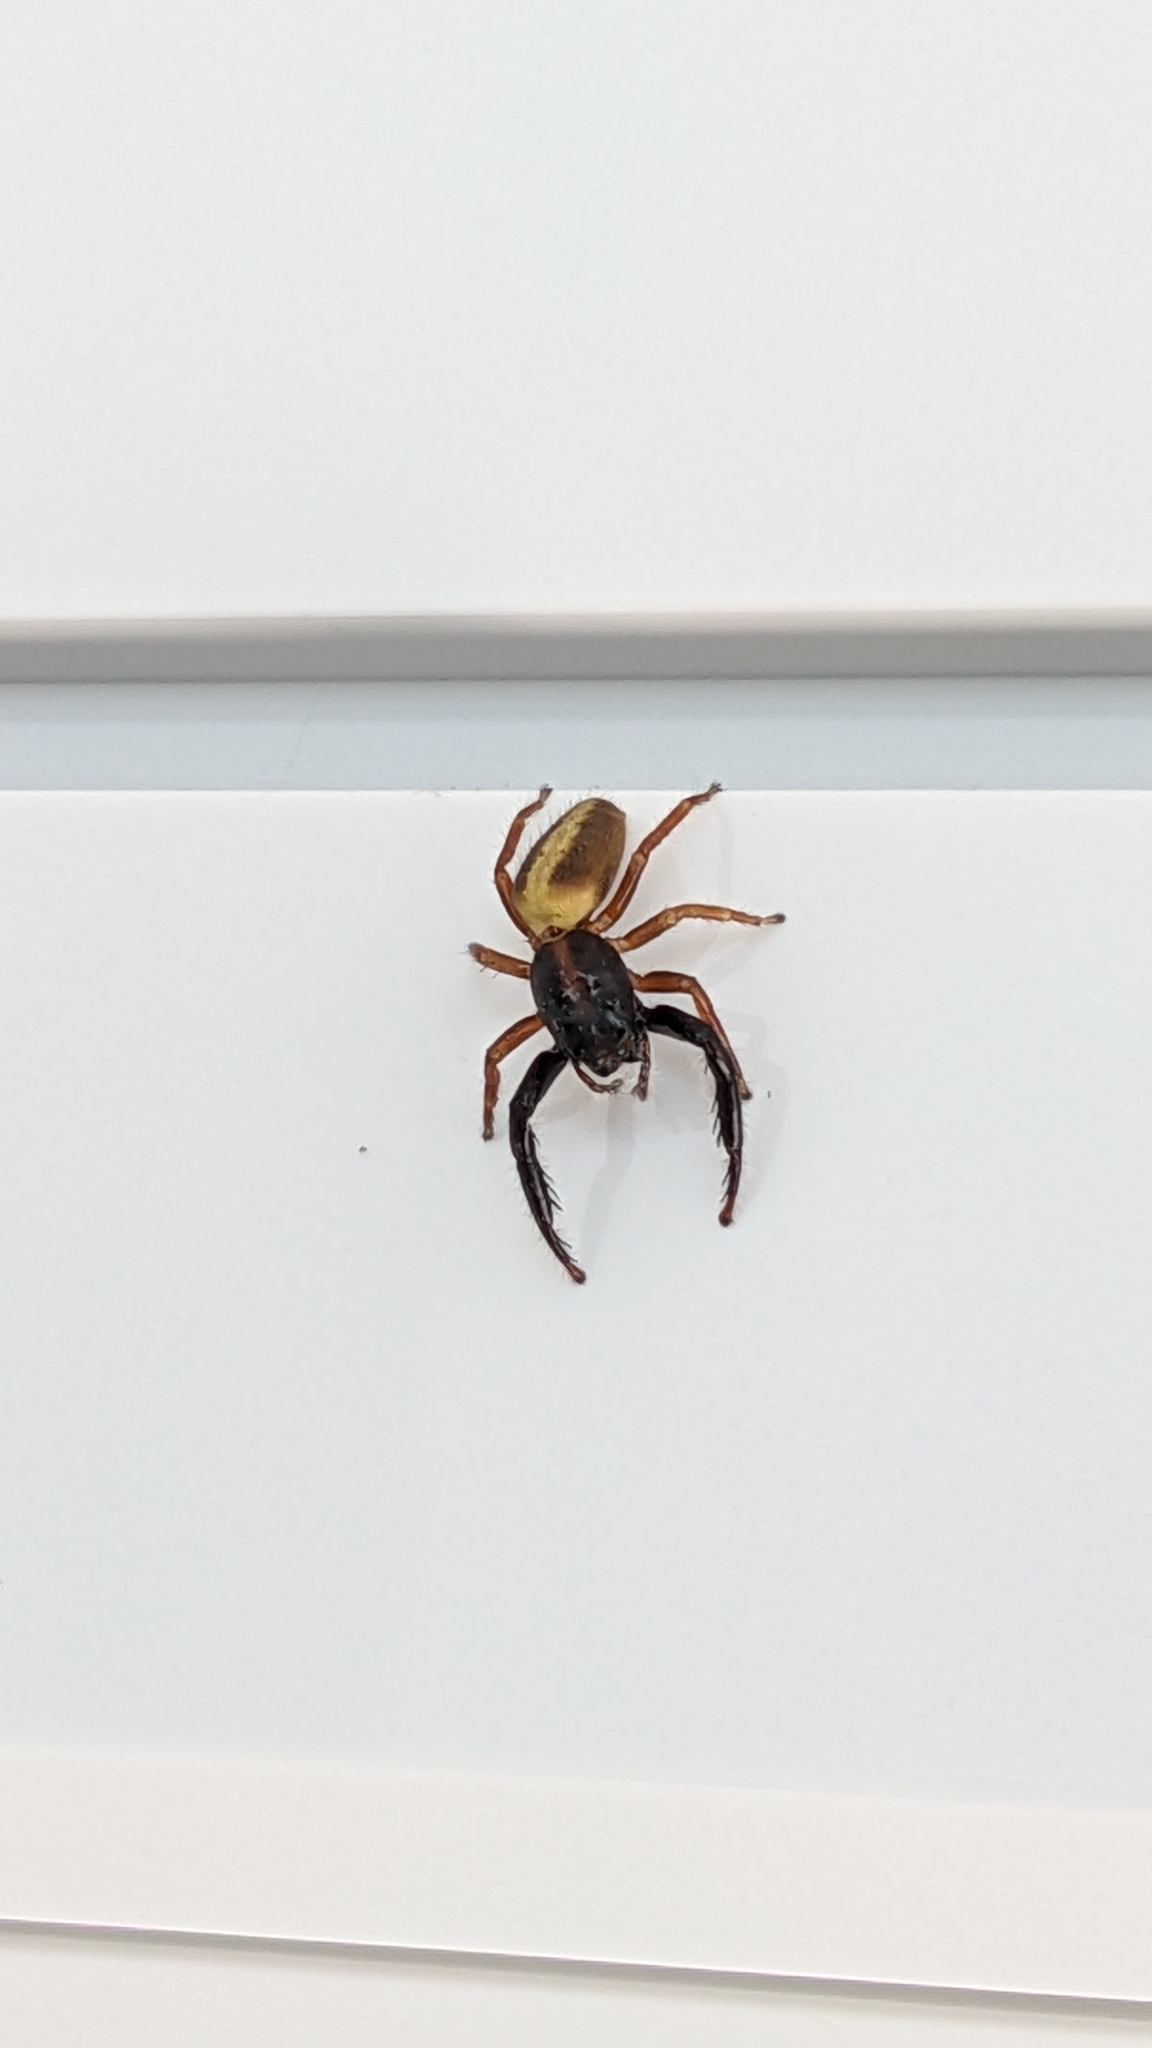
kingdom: Animalia
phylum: Arthropoda
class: Arachnida
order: Araneae
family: Salticidae
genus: Trite
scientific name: Trite planiceps
